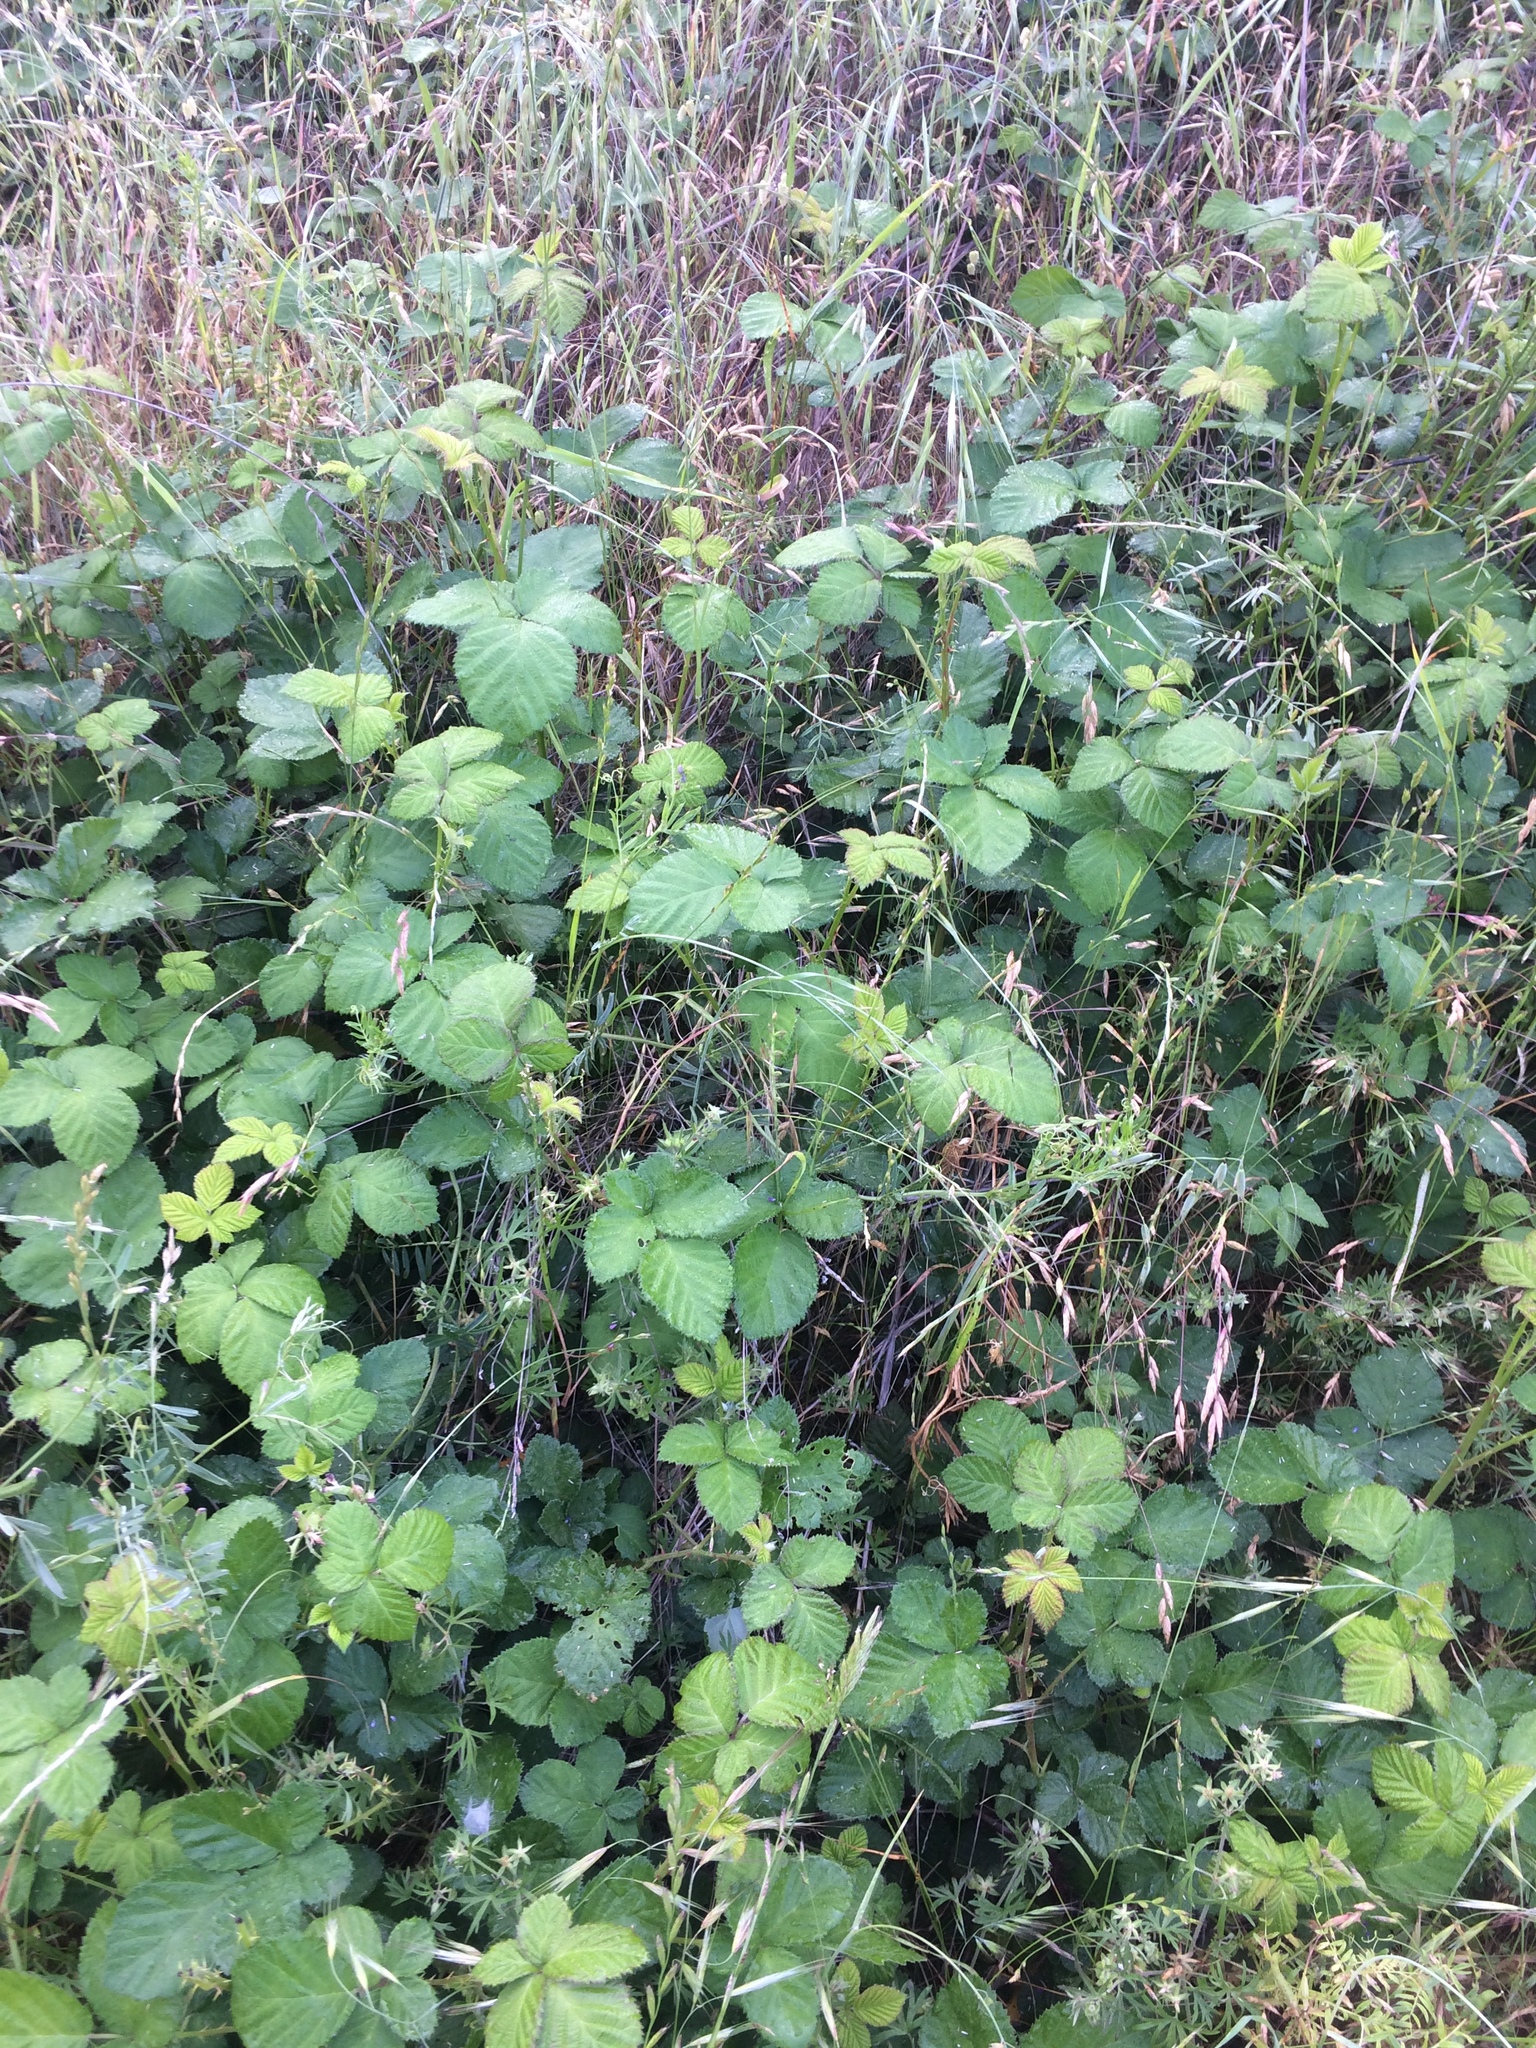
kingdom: Plantae
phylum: Tracheophyta
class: Magnoliopsida
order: Rosales
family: Rosaceae
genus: Rubus
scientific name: Rubus armeniacus
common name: Himalayan blackberry
